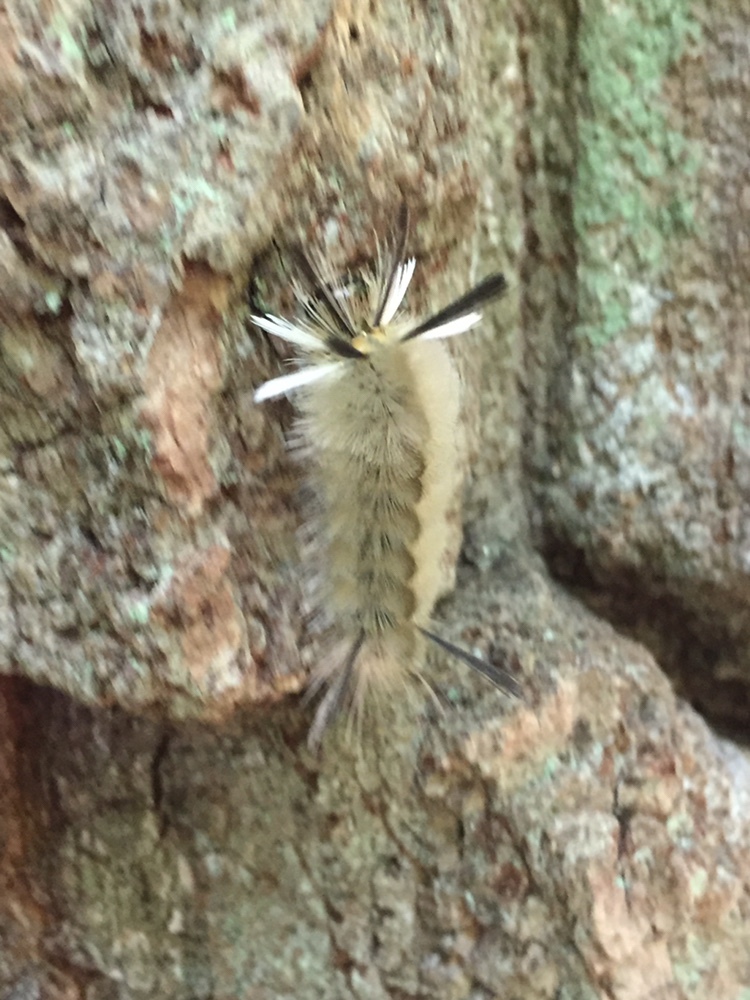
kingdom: Animalia
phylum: Arthropoda
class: Insecta
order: Lepidoptera
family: Erebidae
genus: Halysidota
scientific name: Halysidota tessellaris
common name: Banded tussock moth
